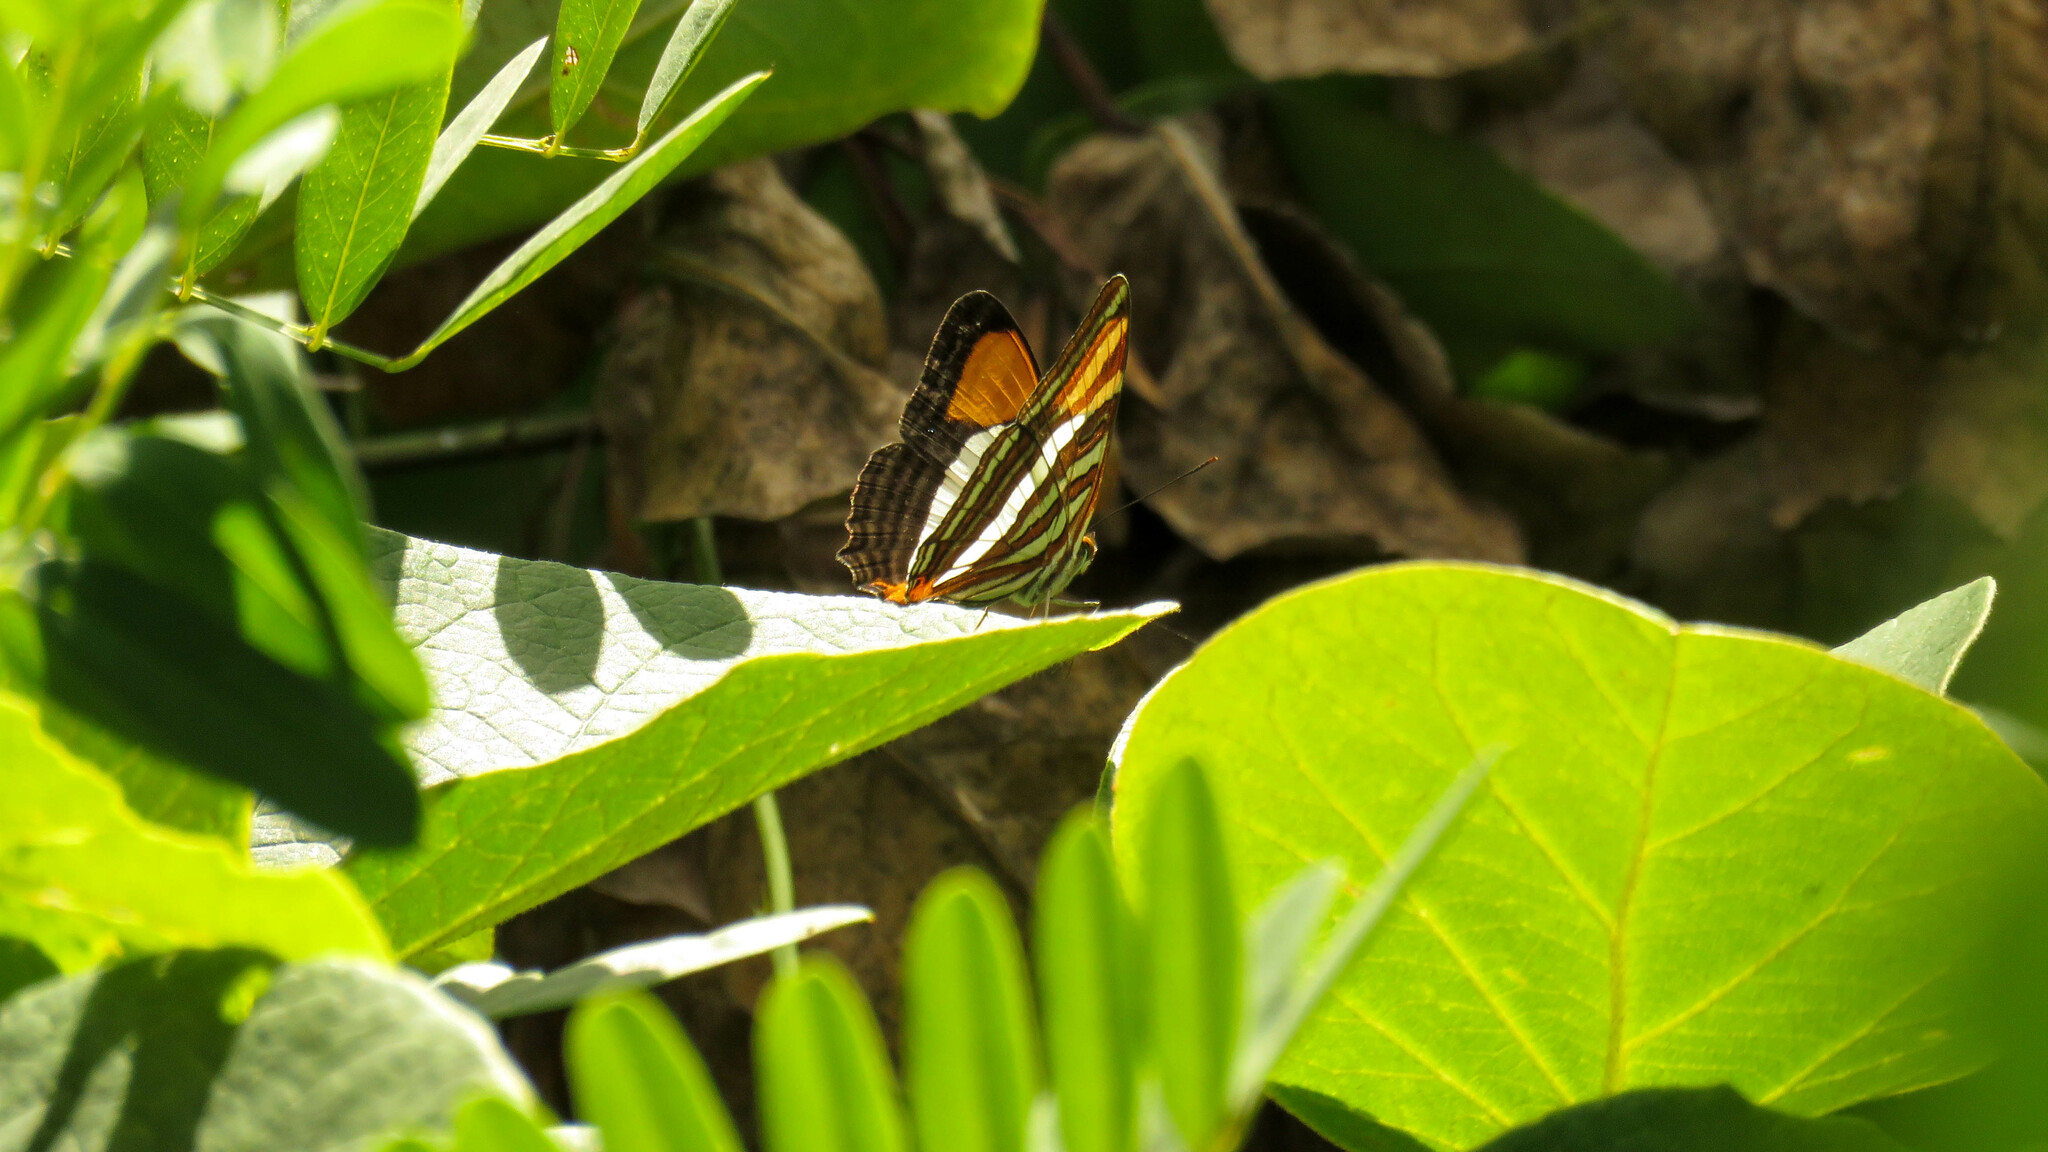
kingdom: Animalia
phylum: Arthropoda
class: Insecta
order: Lepidoptera
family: Nymphalidae
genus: Limenitis
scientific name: Limenitis syma
